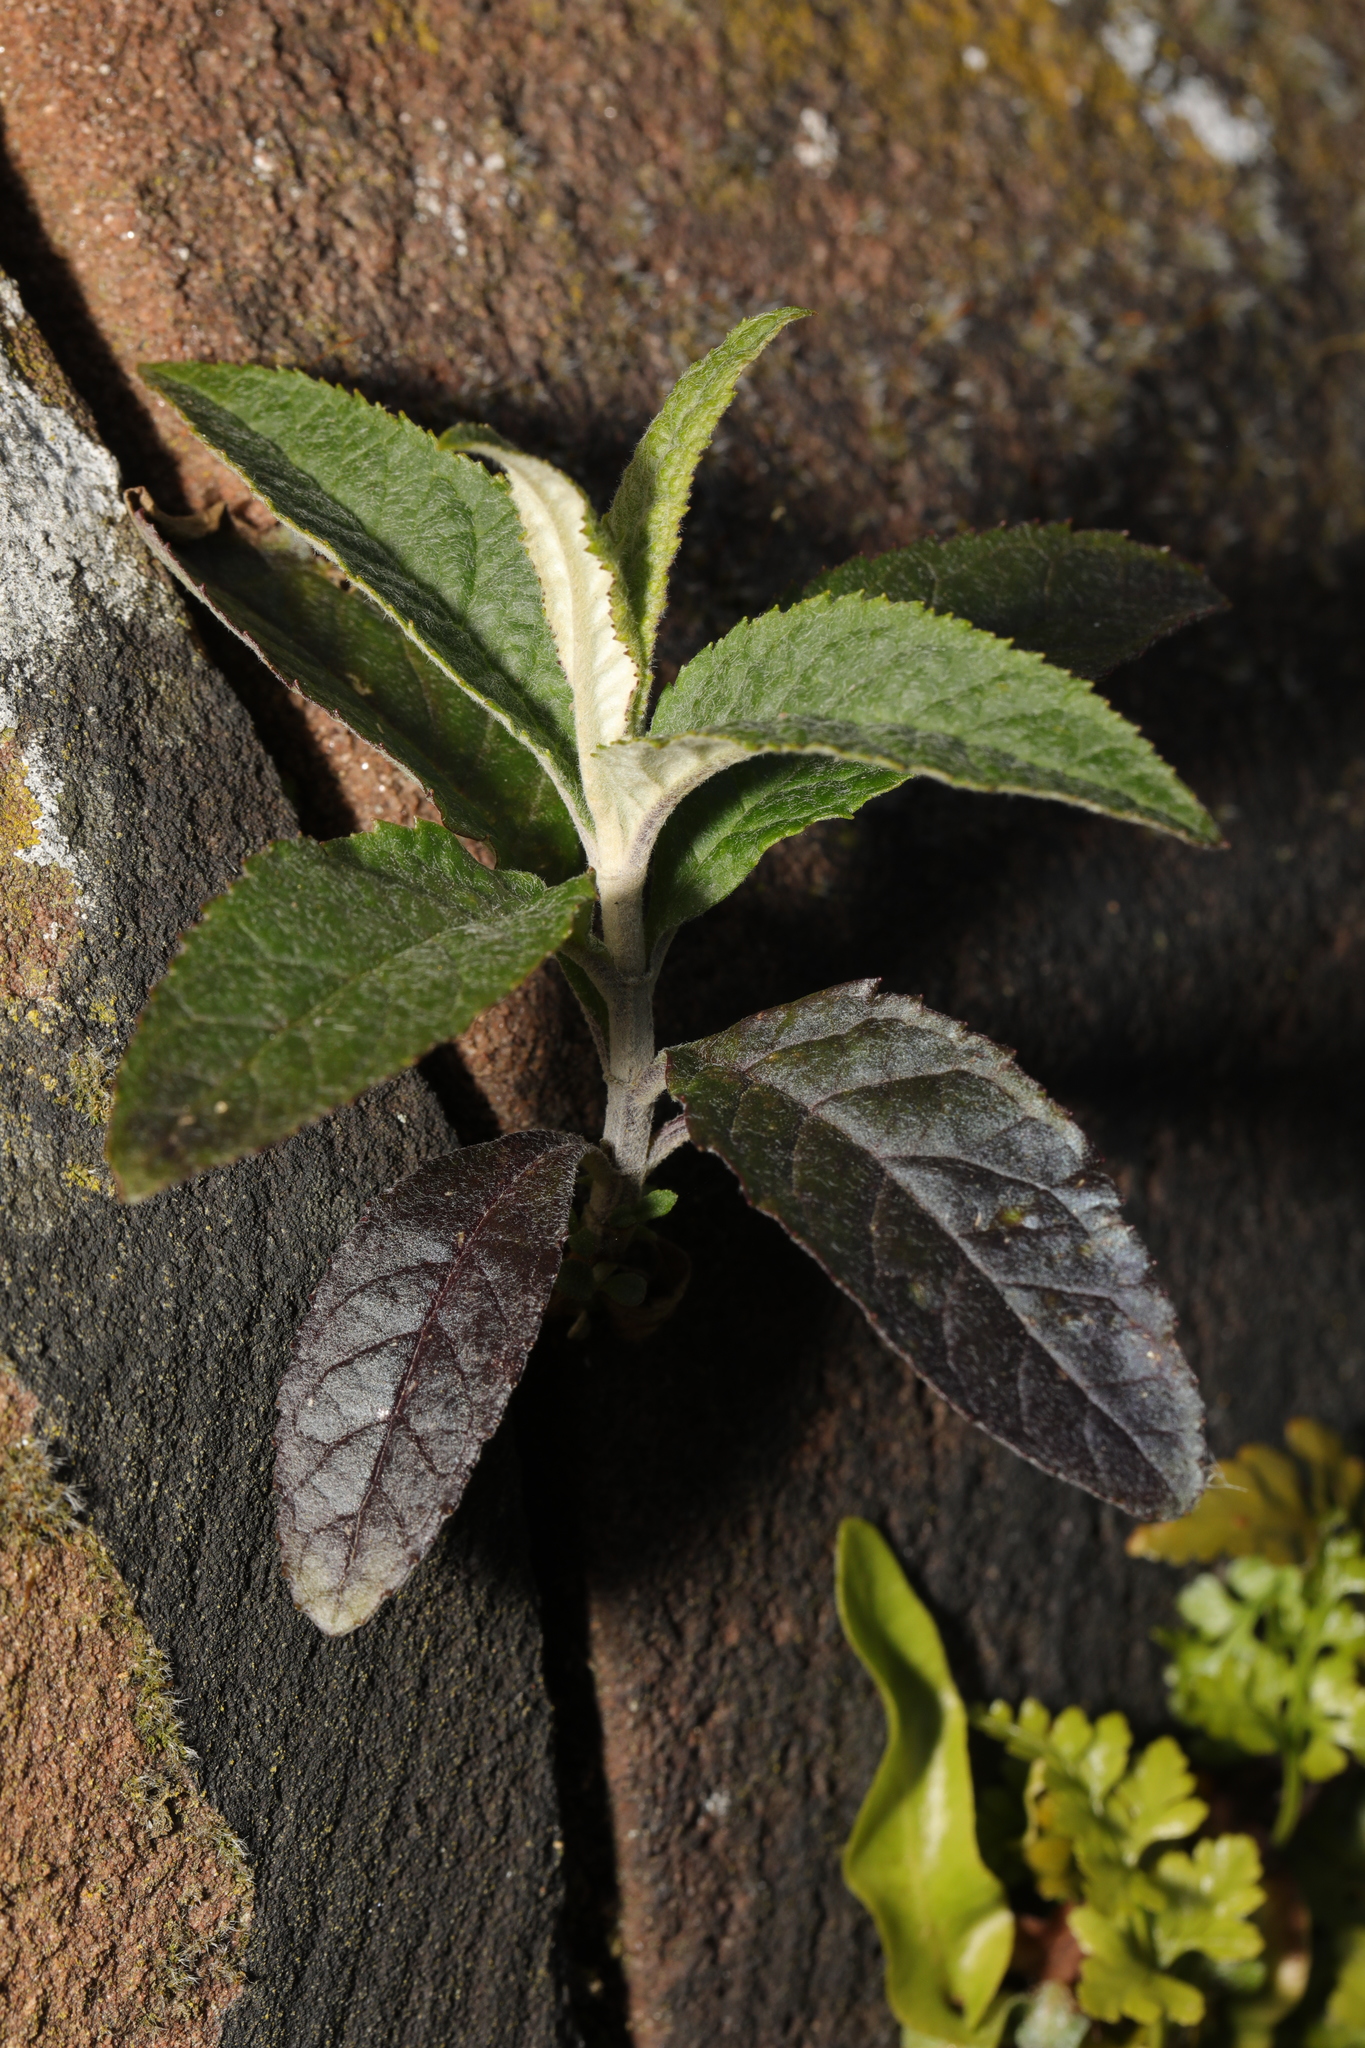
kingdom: Plantae
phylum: Tracheophyta
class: Magnoliopsida
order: Lamiales
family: Scrophulariaceae
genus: Buddleja
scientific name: Buddleja davidii
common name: Butterfly-bush
